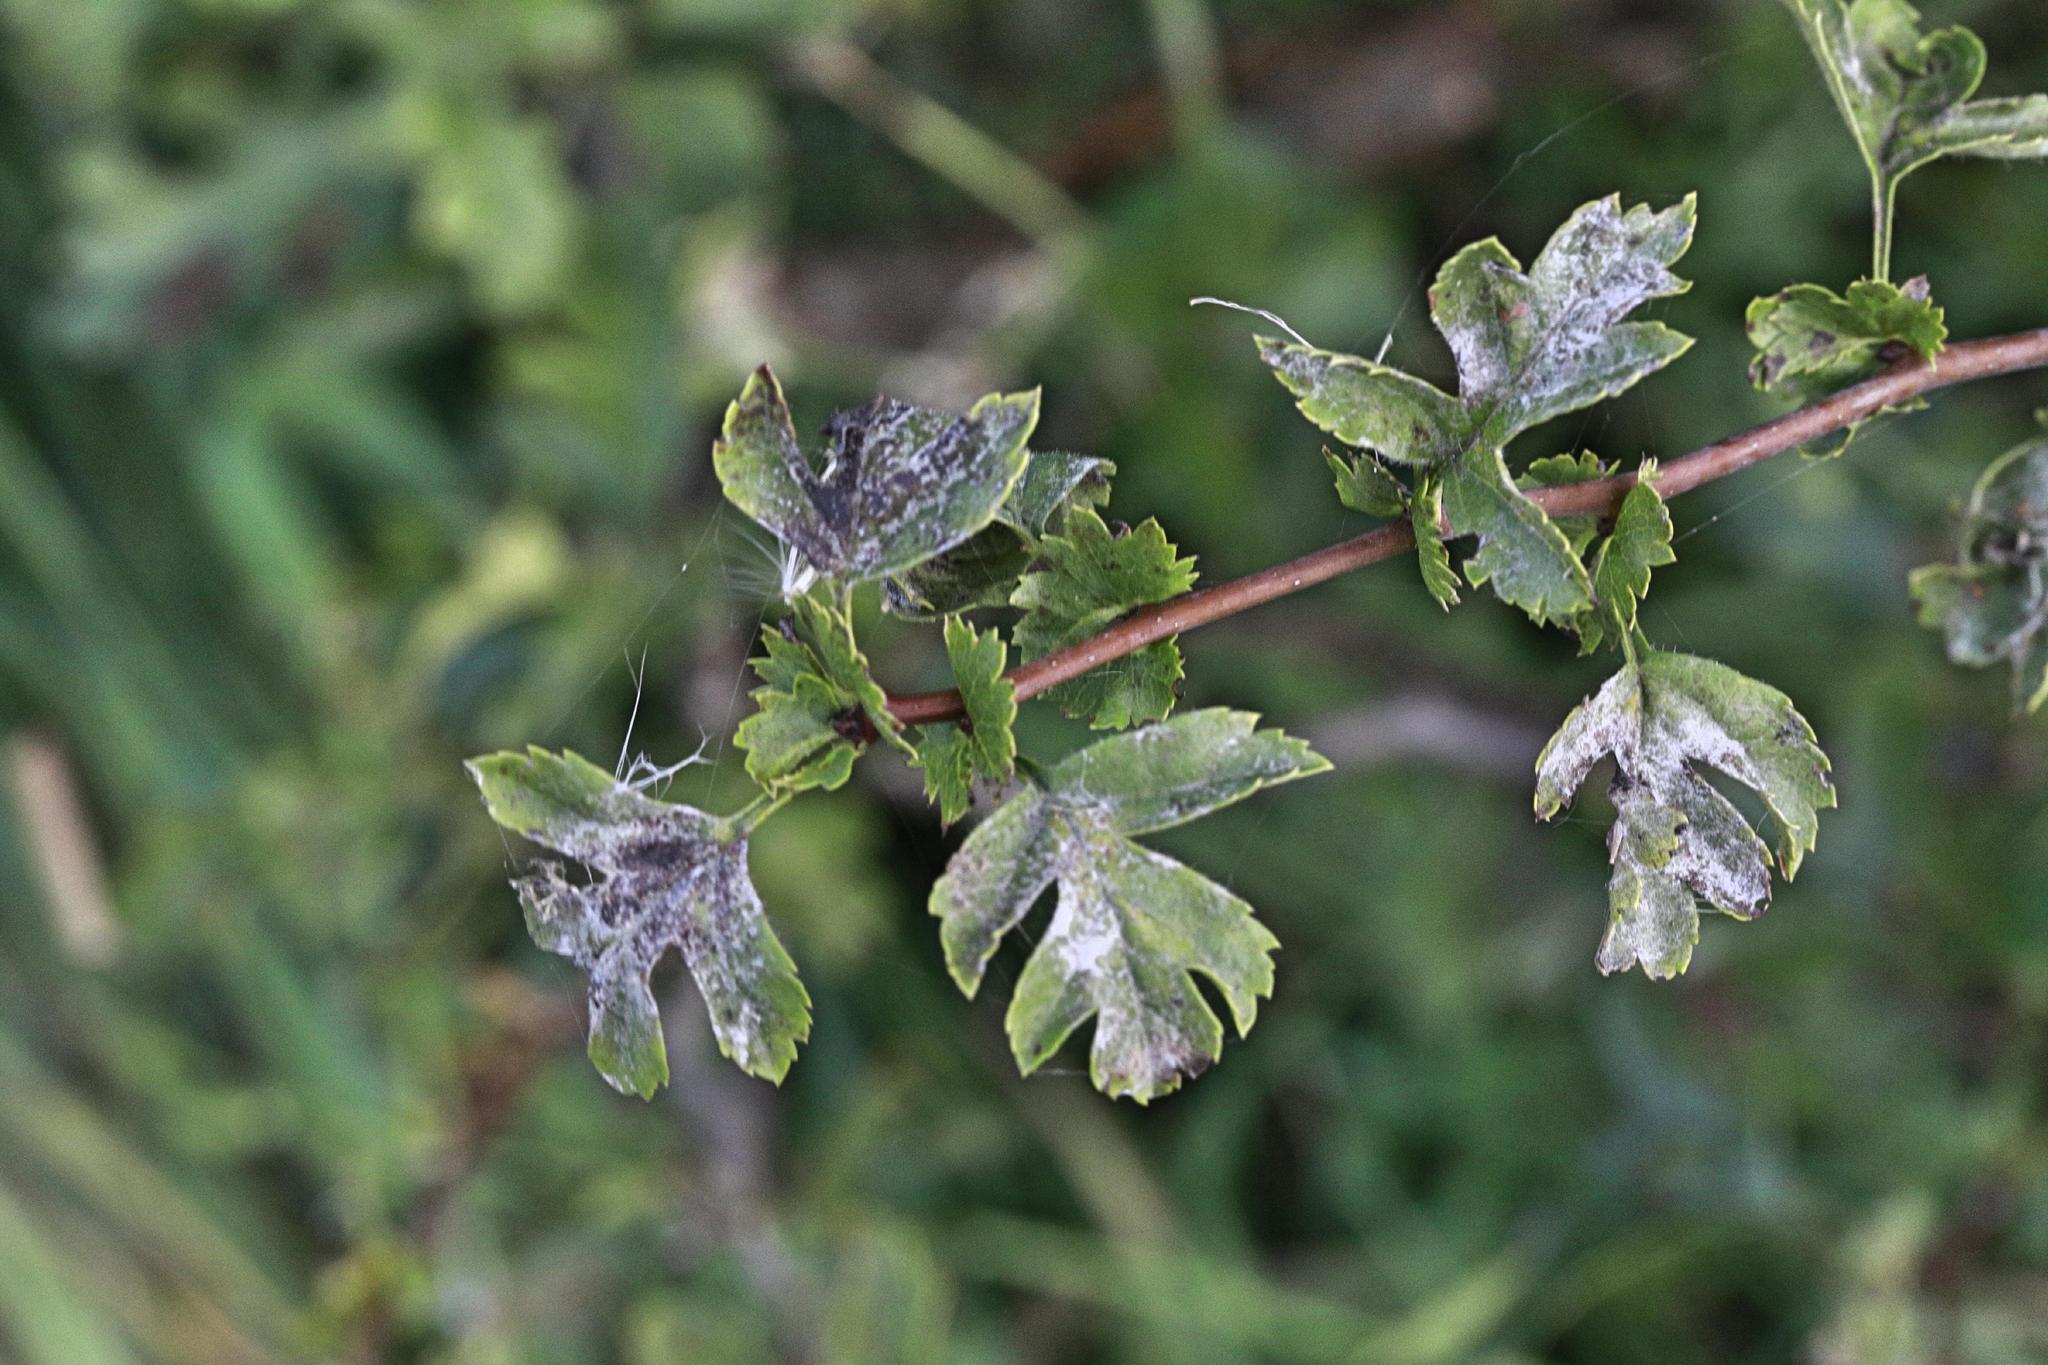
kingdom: Fungi
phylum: Ascomycota
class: Leotiomycetes
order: Helotiales
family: Erysiphaceae
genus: Podosphaera
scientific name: Podosphaera clandestina
